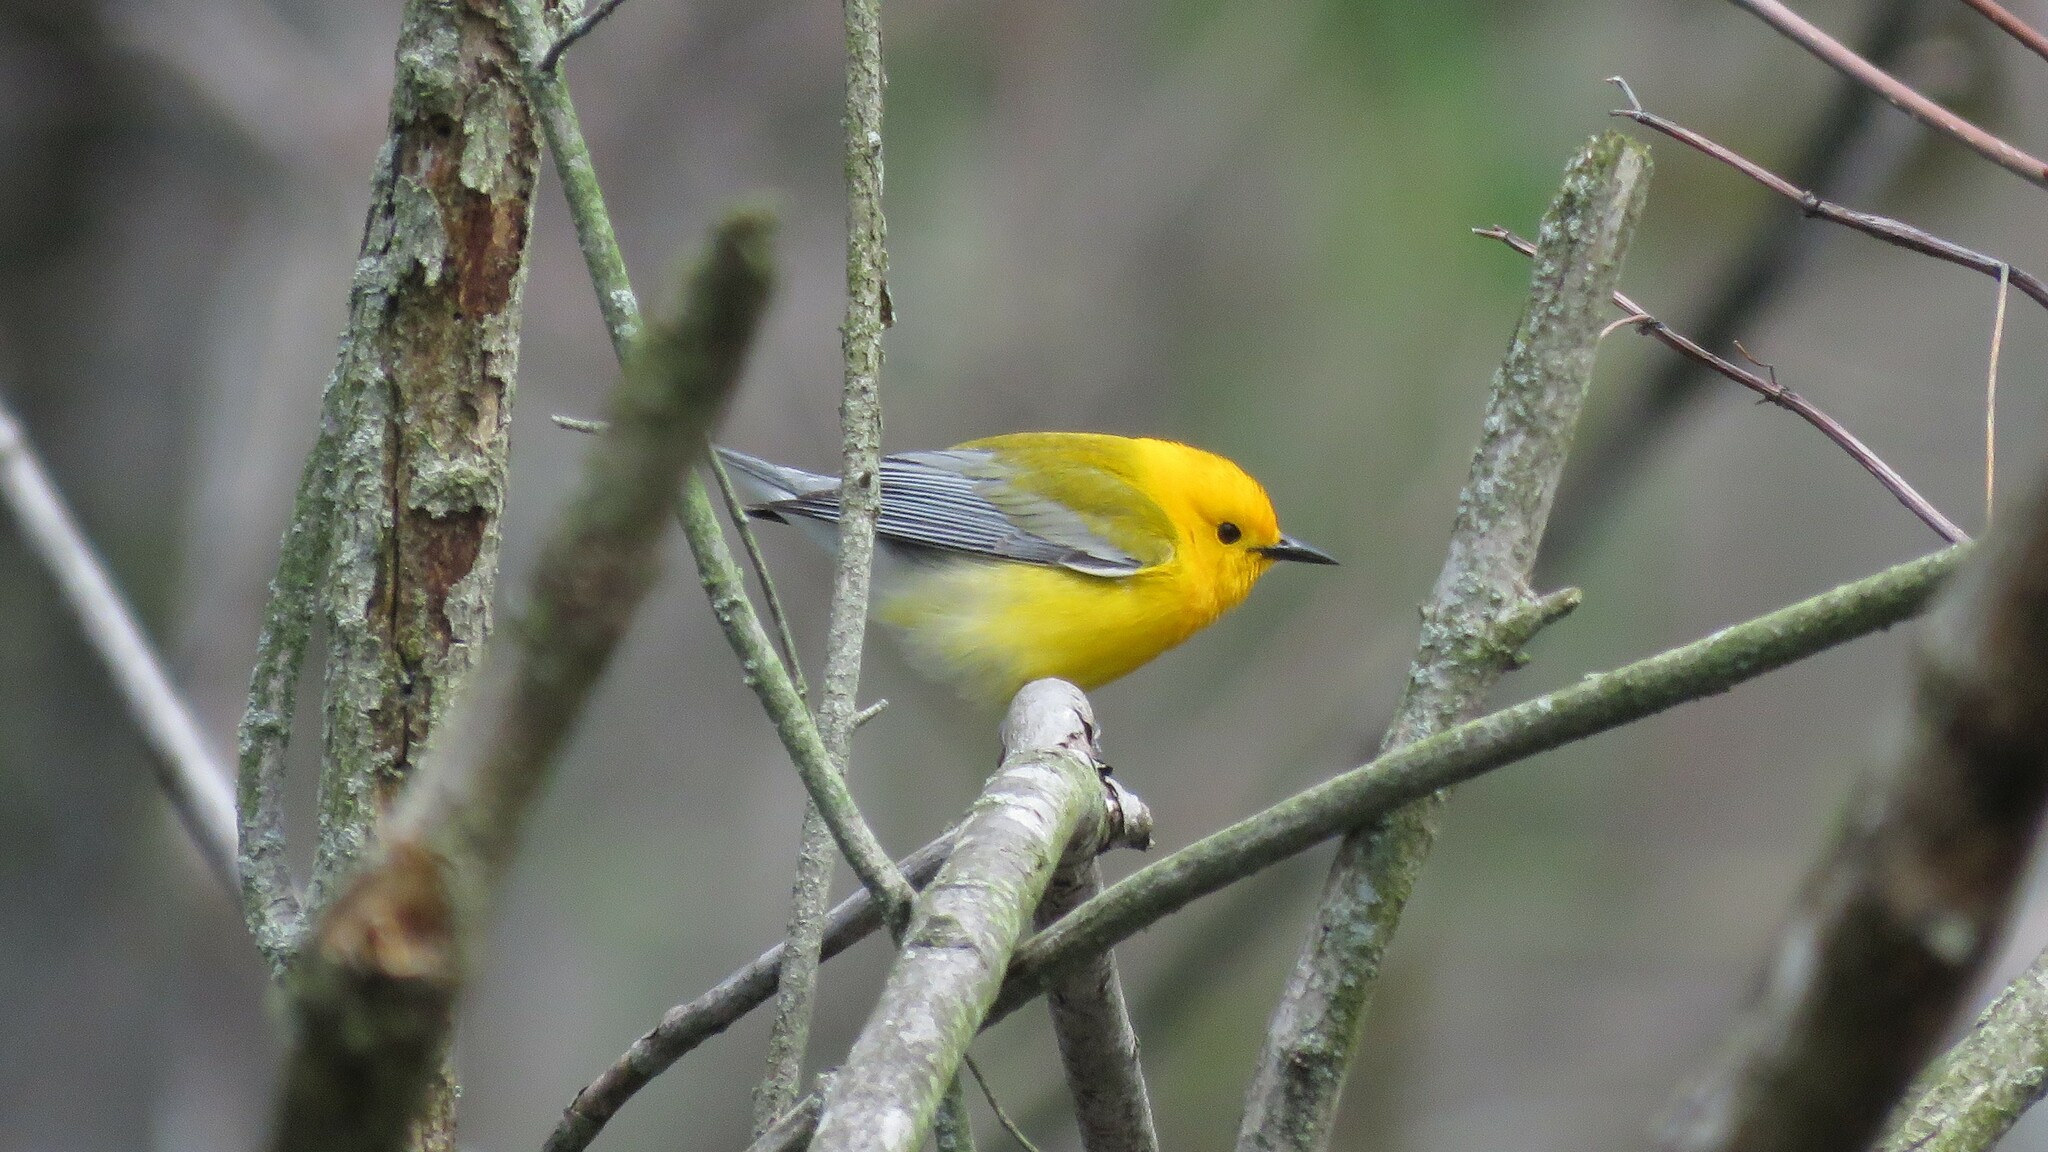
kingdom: Animalia
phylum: Chordata
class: Aves
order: Passeriformes
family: Parulidae
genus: Protonotaria
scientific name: Protonotaria citrea
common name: Prothonotary warbler
